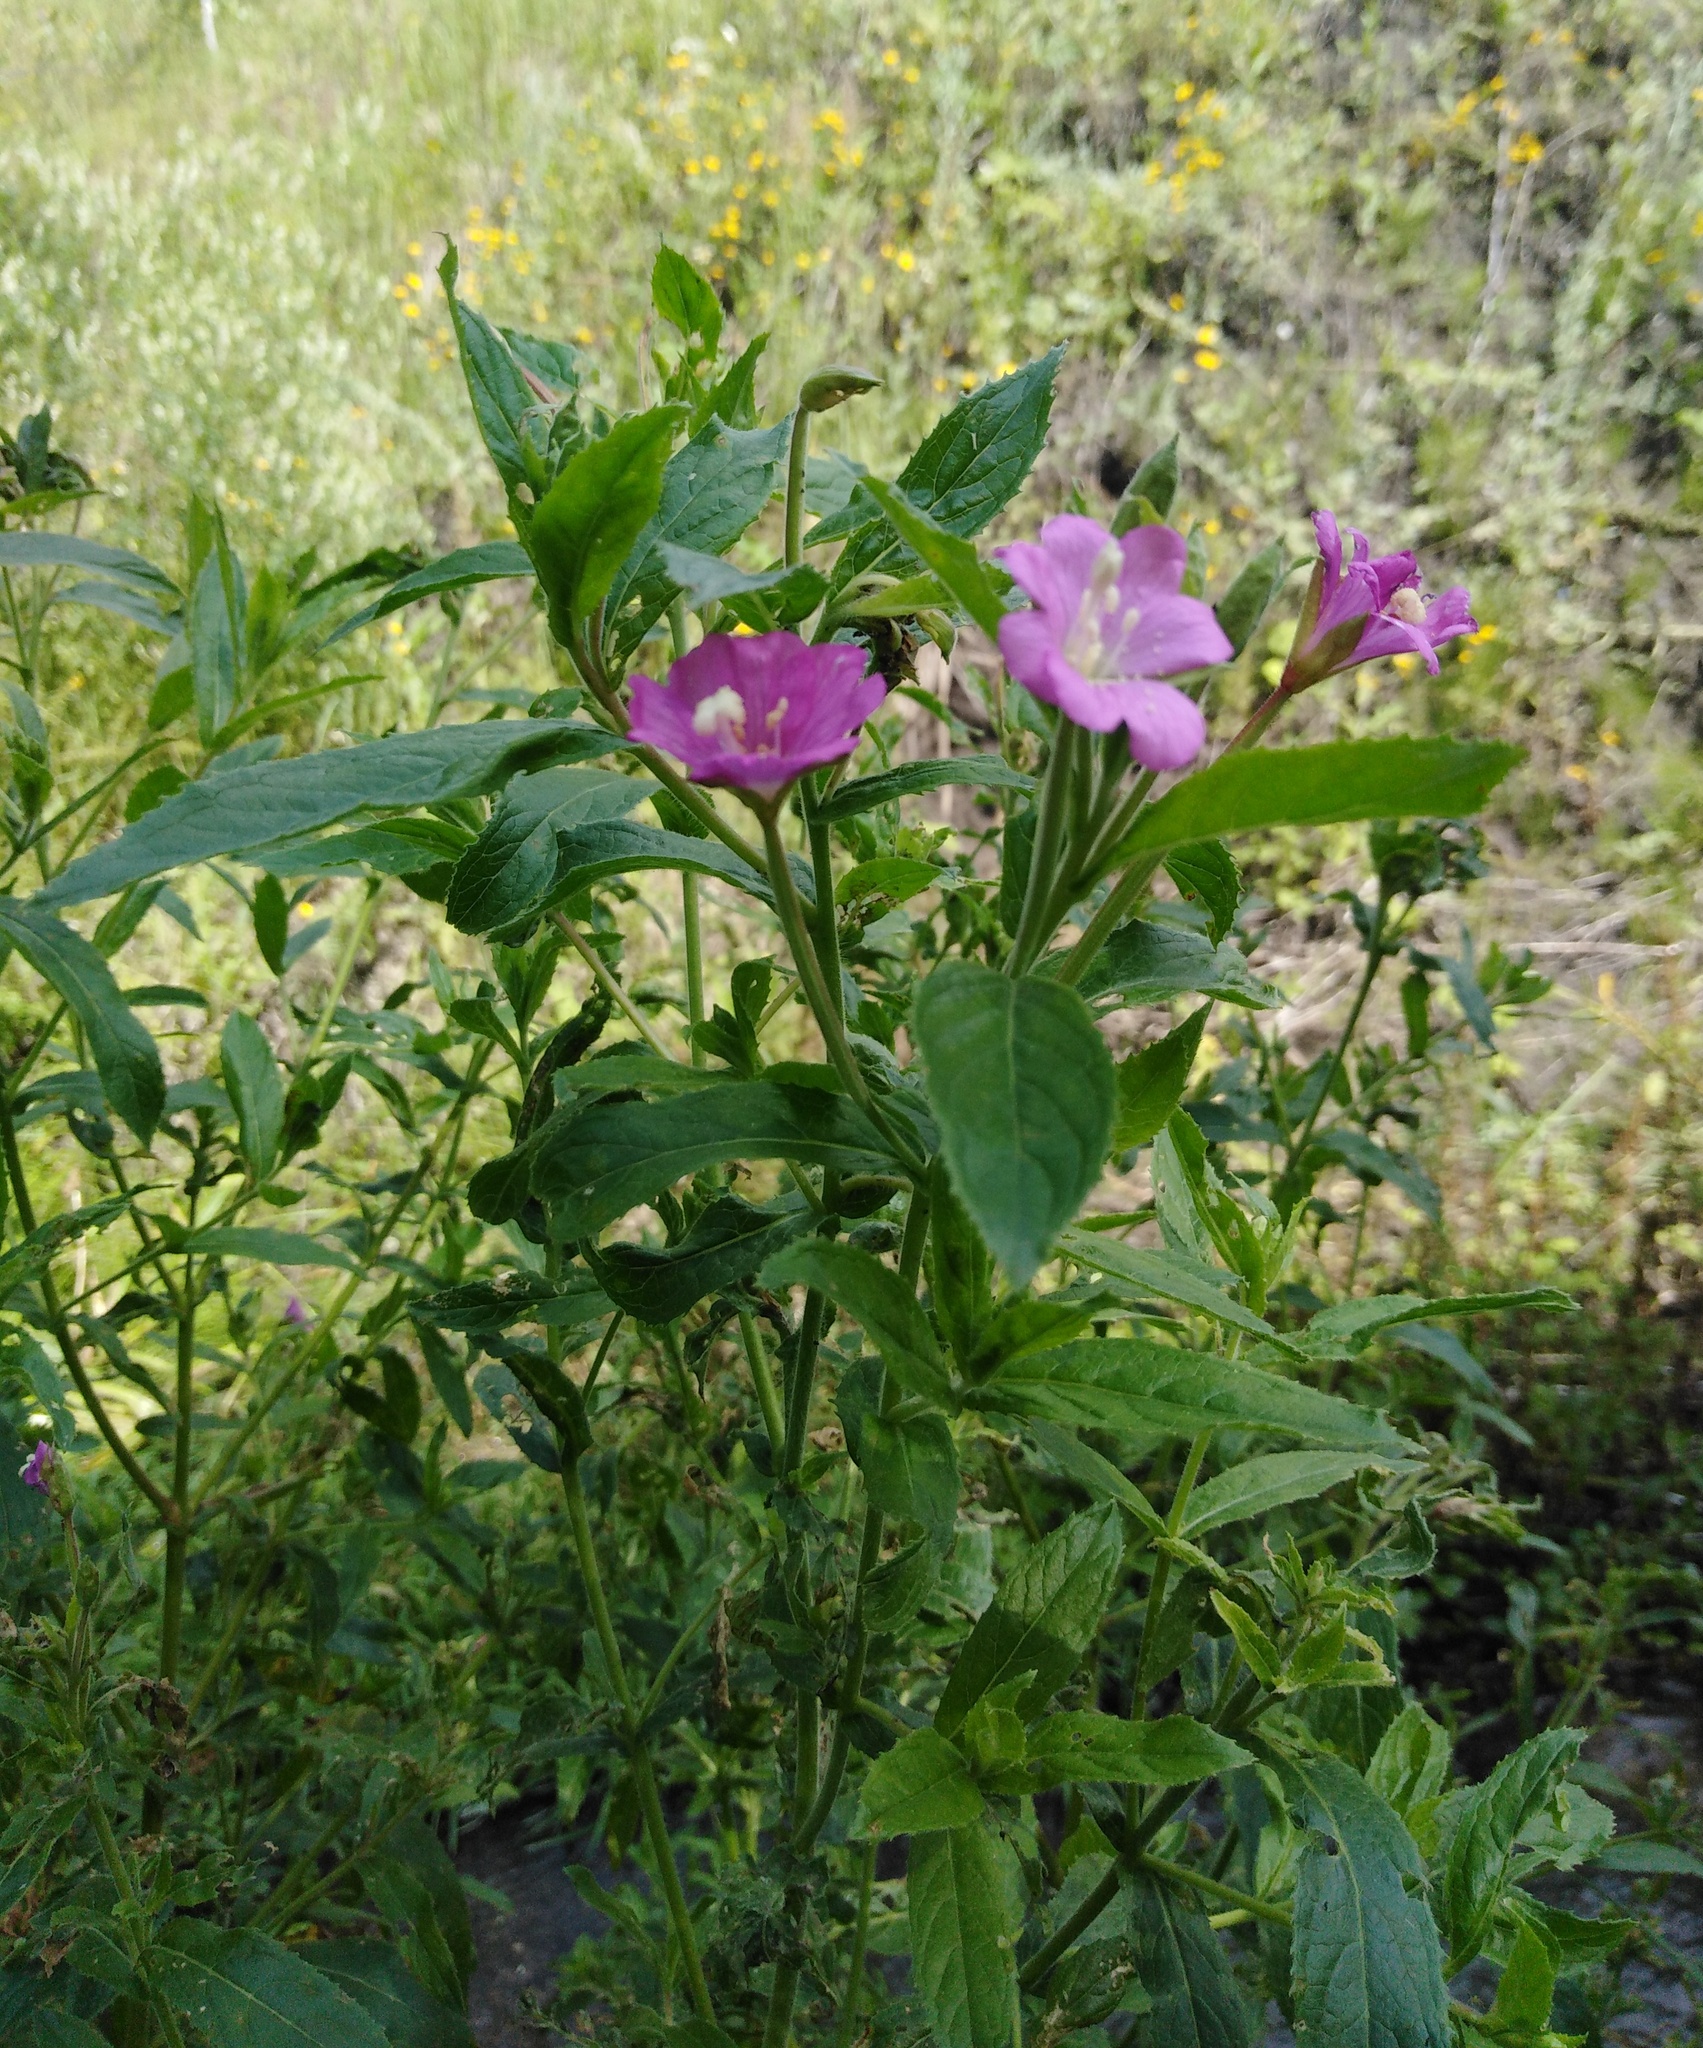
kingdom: Plantae
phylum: Tracheophyta
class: Magnoliopsida
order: Myrtales
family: Onagraceae
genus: Epilobium
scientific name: Epilobium hirsutum
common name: Great willowherb
